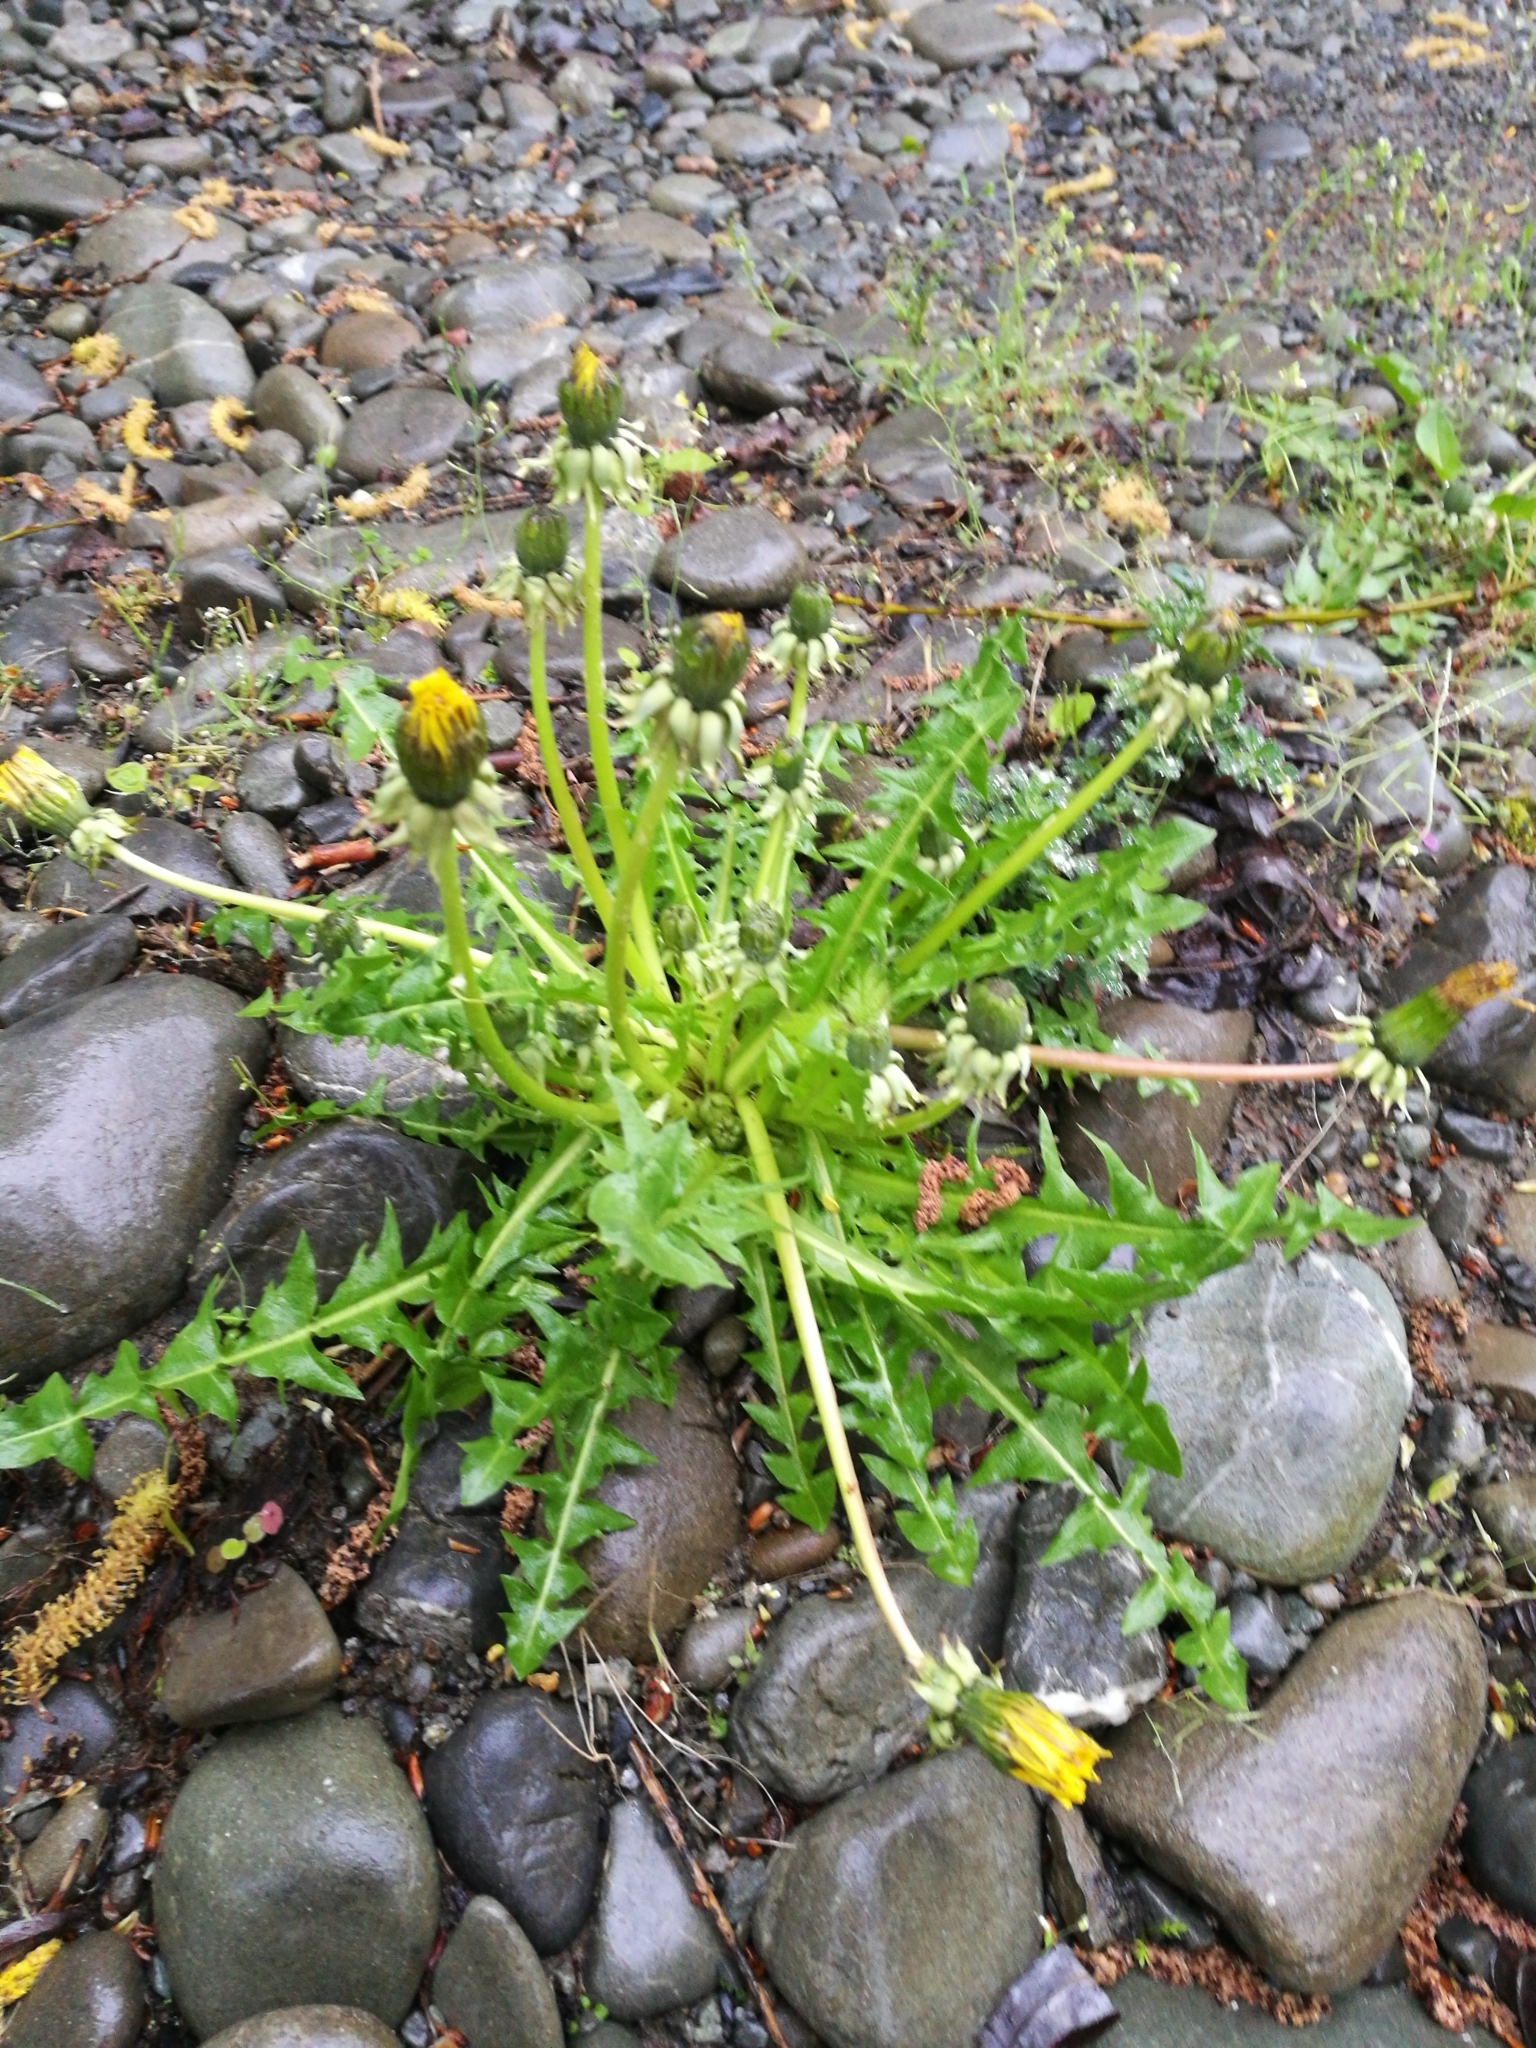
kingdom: Plantae
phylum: Tracheophyta
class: Magnoliopsida
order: Asterales
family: Asteraceae
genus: Taraxacum
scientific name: Taraxacum officinale
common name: Common dandelion
